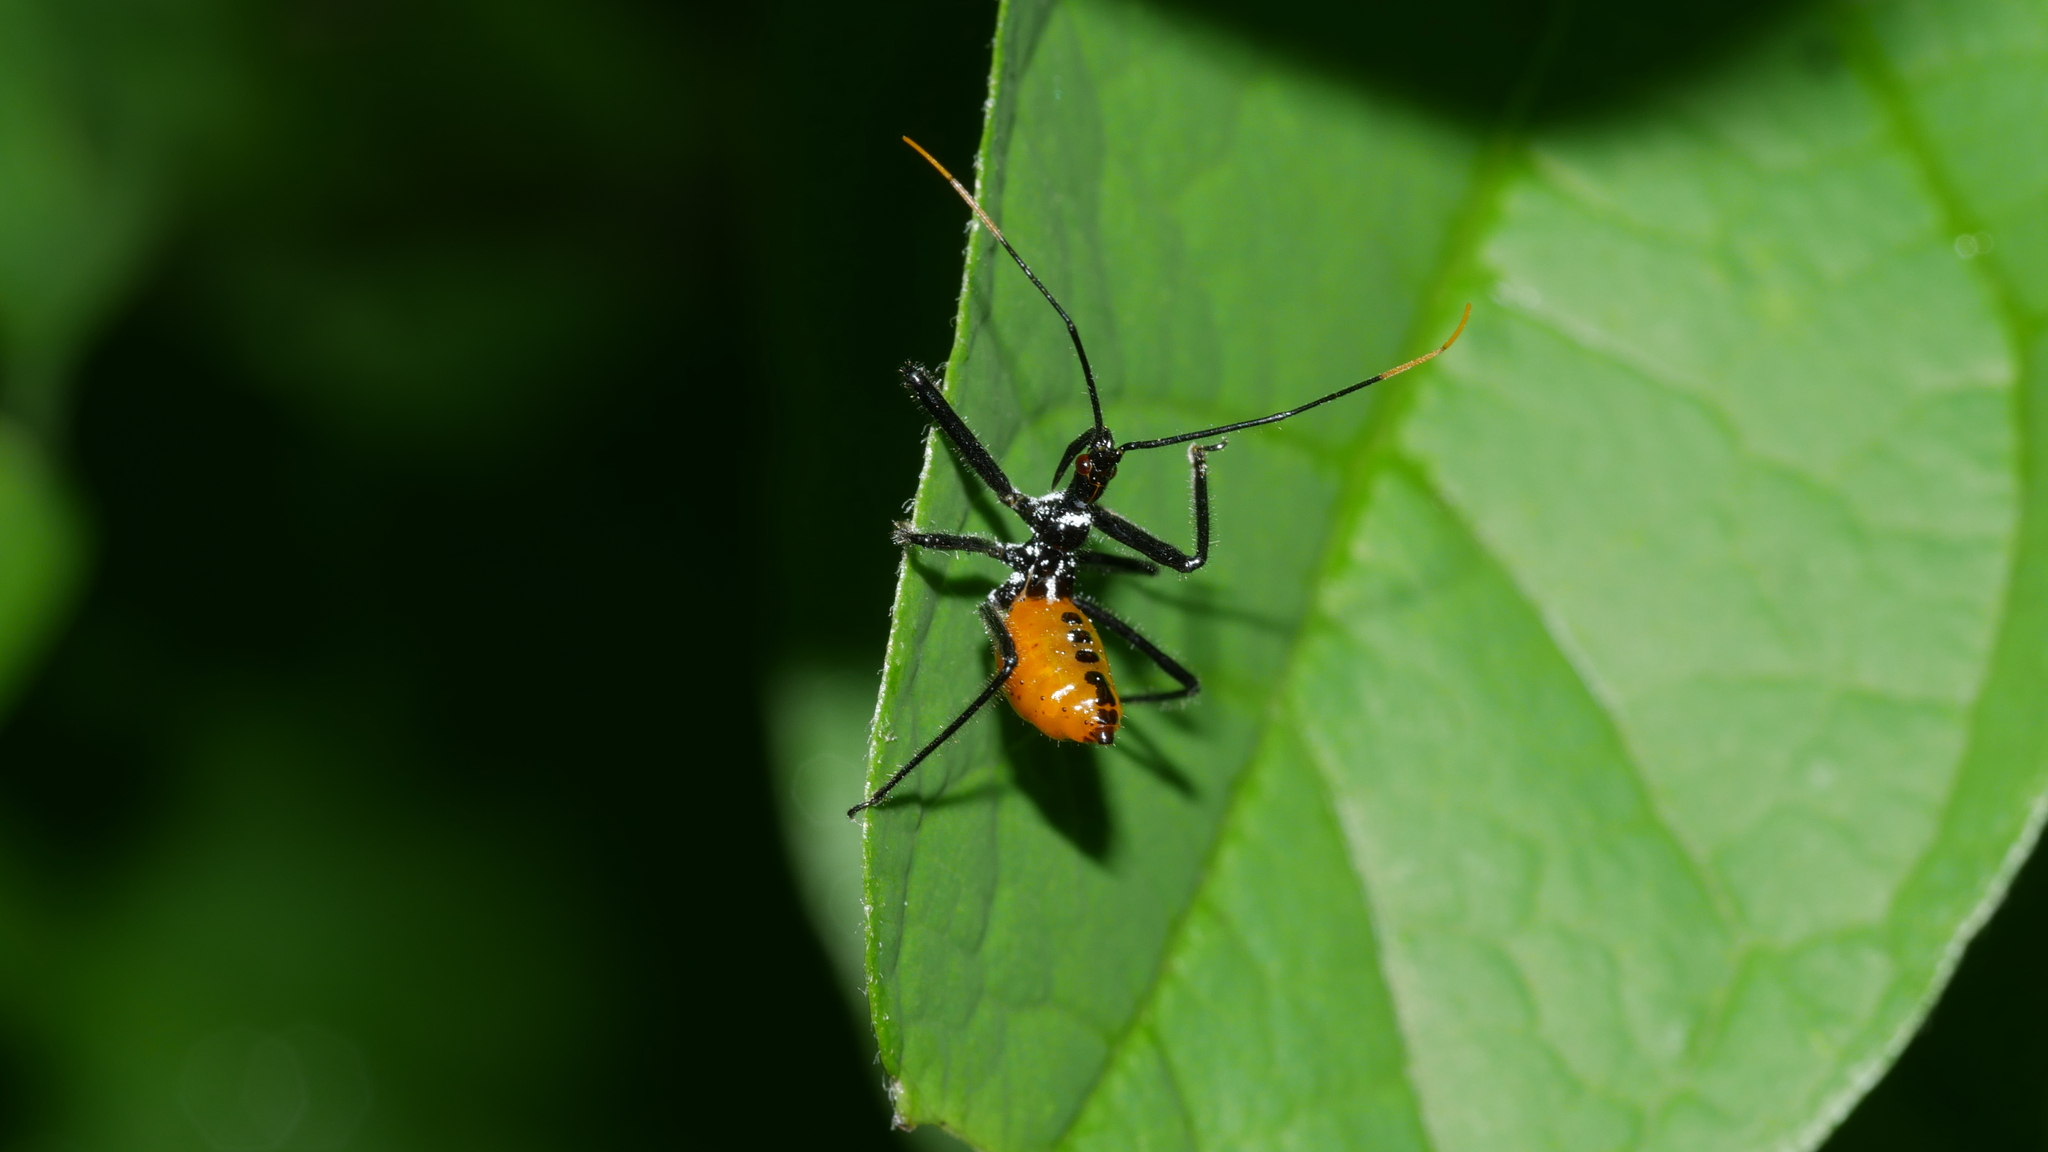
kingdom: Animalia
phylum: Arthropoda
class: Insecta
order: Hemiptera
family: Reduviidae
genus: Arilus
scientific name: Arilus cristatus
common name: North american wheel bug
